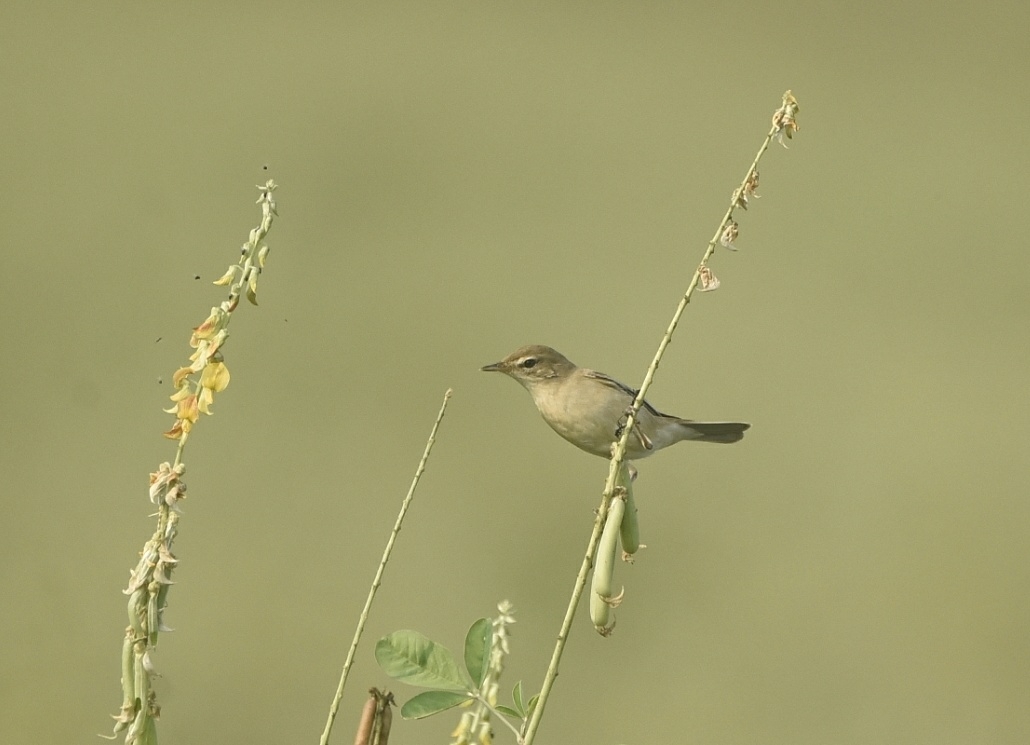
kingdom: Animalia
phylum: Chordata
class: Aves
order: Passeriformes
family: Acrocephalidae
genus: Iduna
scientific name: Iduna caligata
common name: Booted warbler
